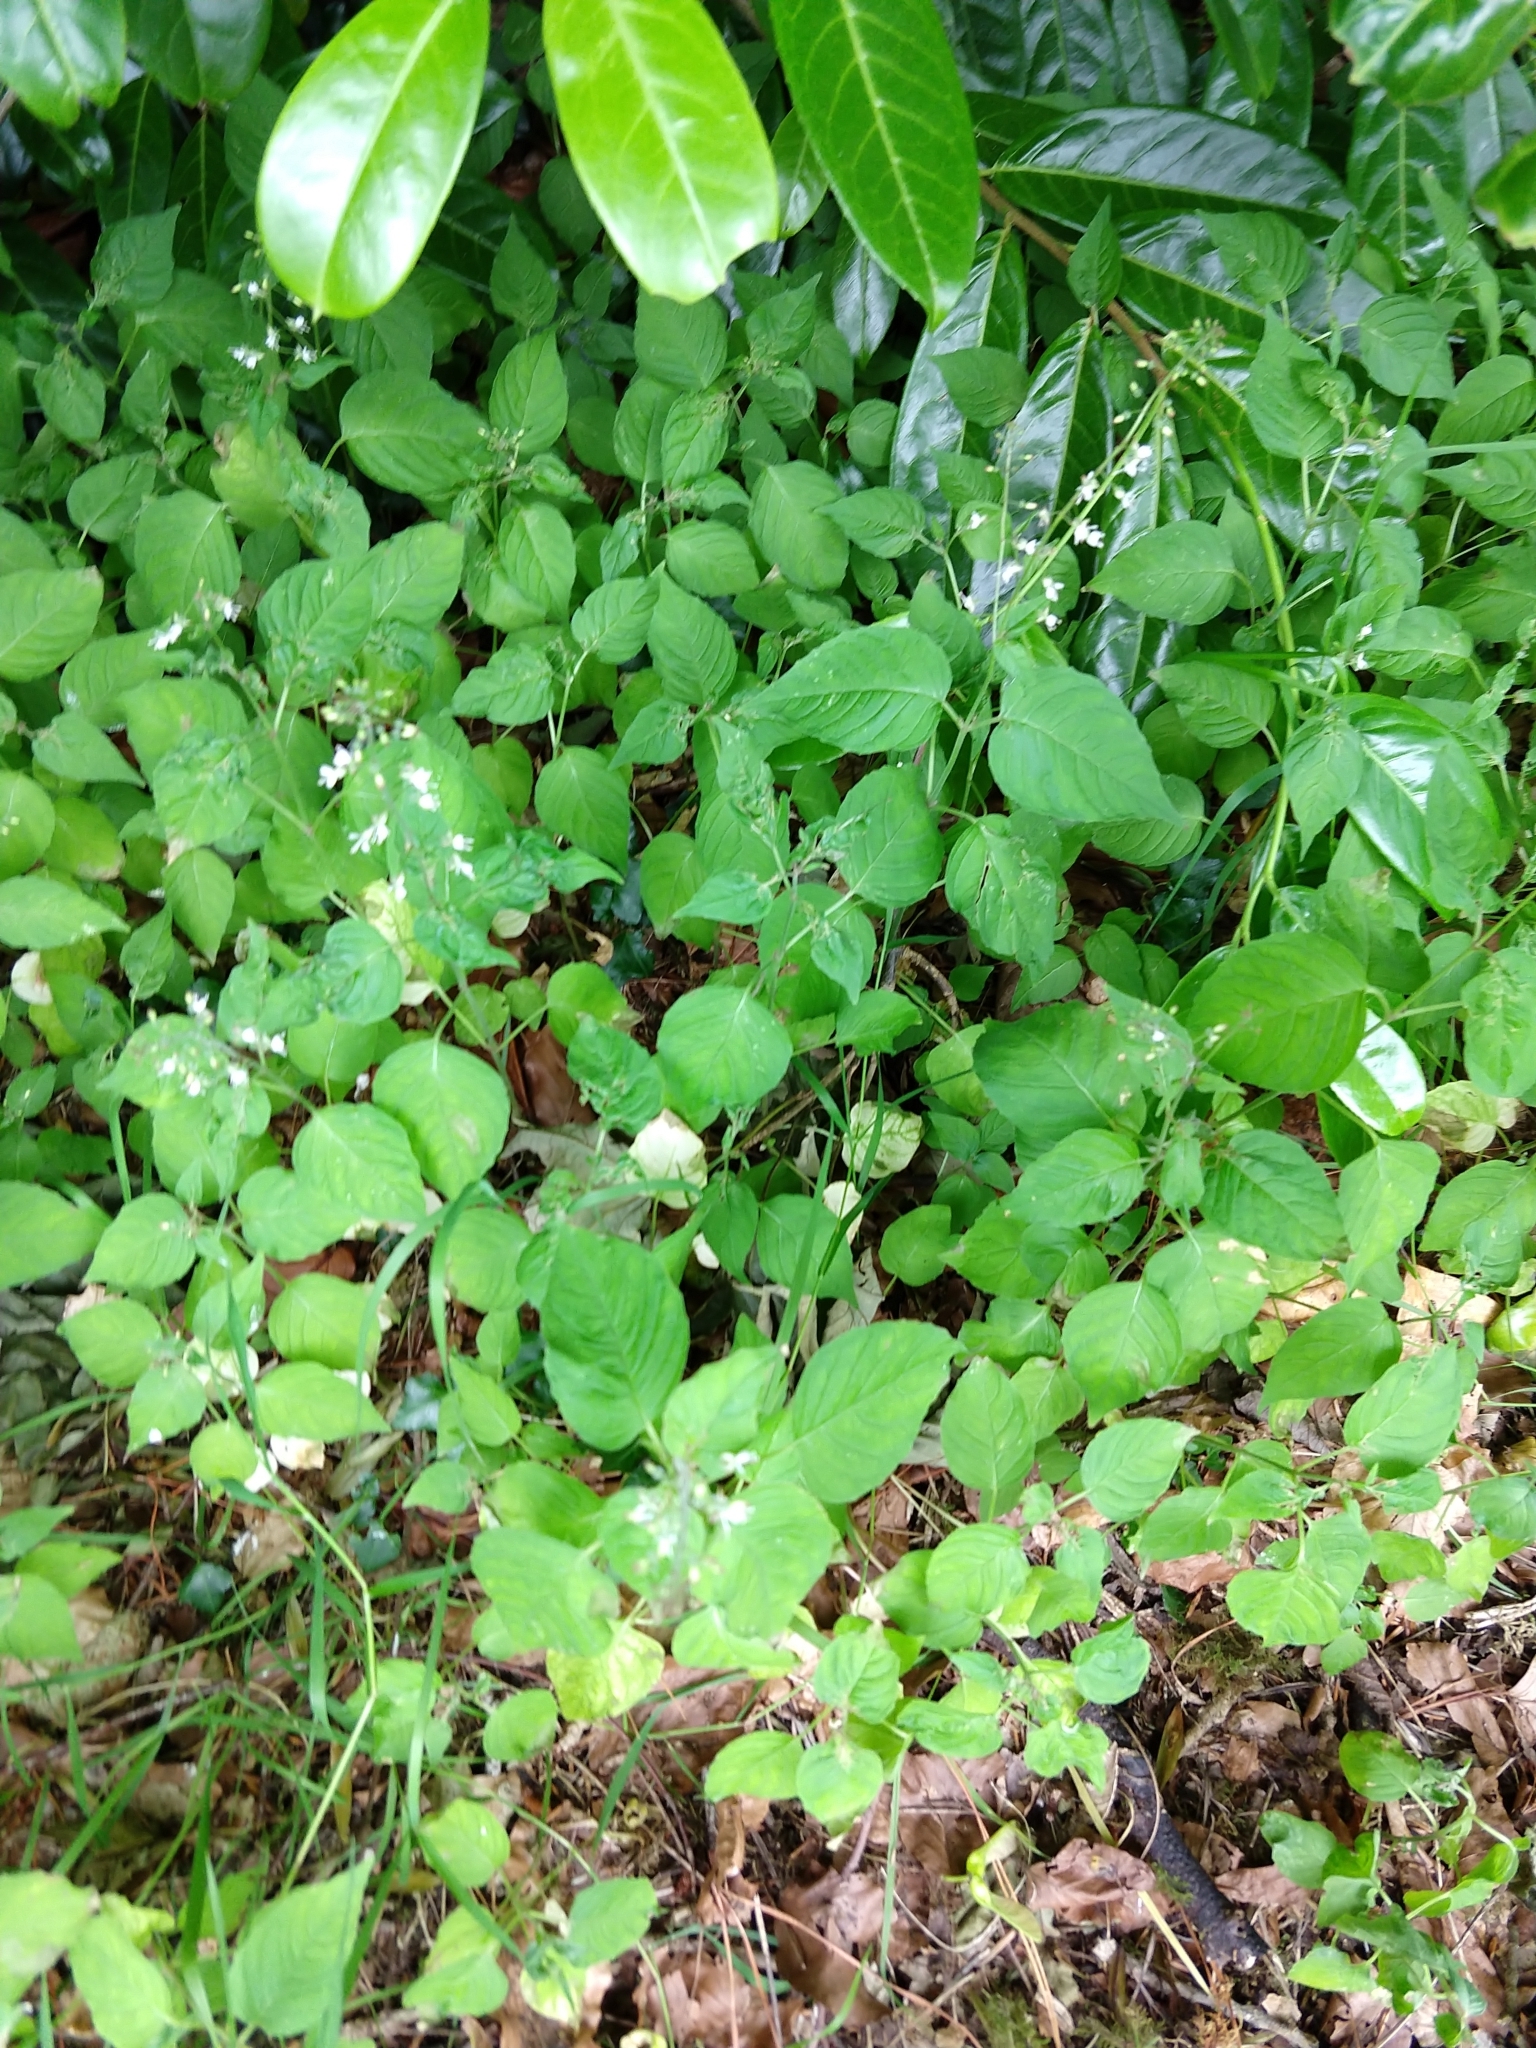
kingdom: Plantae
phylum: Tracheophyta
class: Magnoliopsida
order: Myrtales
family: Onagraceae
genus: Circaea
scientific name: Circaea lutetiana
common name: Enchanter's-nightshade
